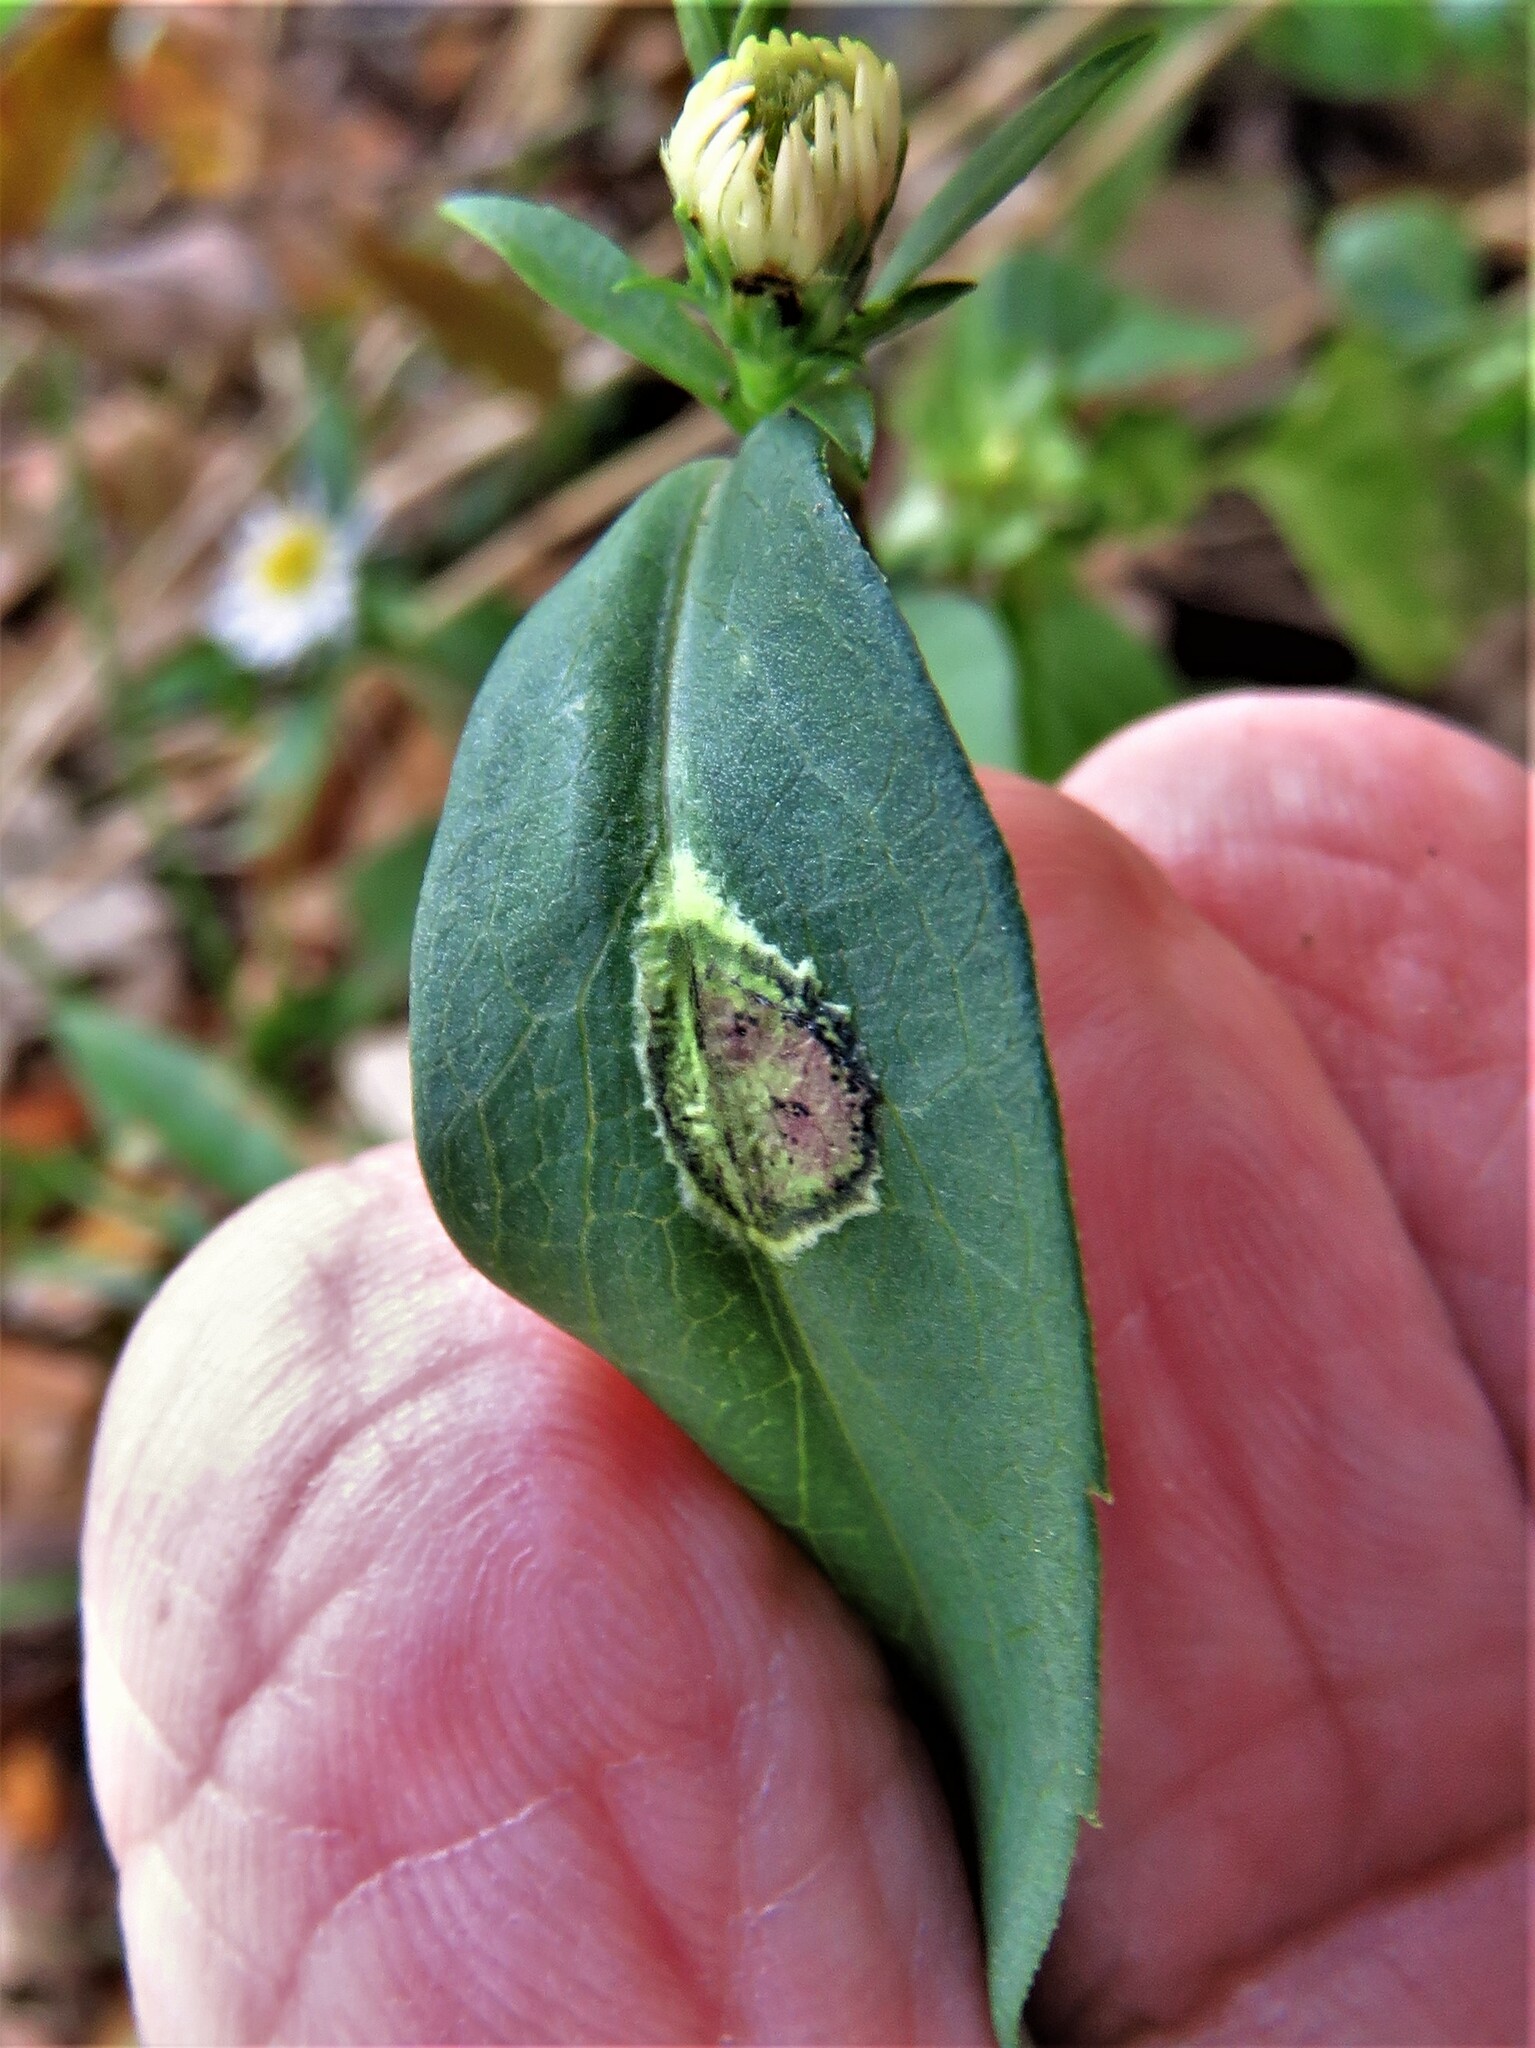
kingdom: Animalia
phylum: Arthropoda
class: Insecta
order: Diptera
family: Cecidomyiidae
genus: Asteromyia
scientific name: Asteromyia laeviana
